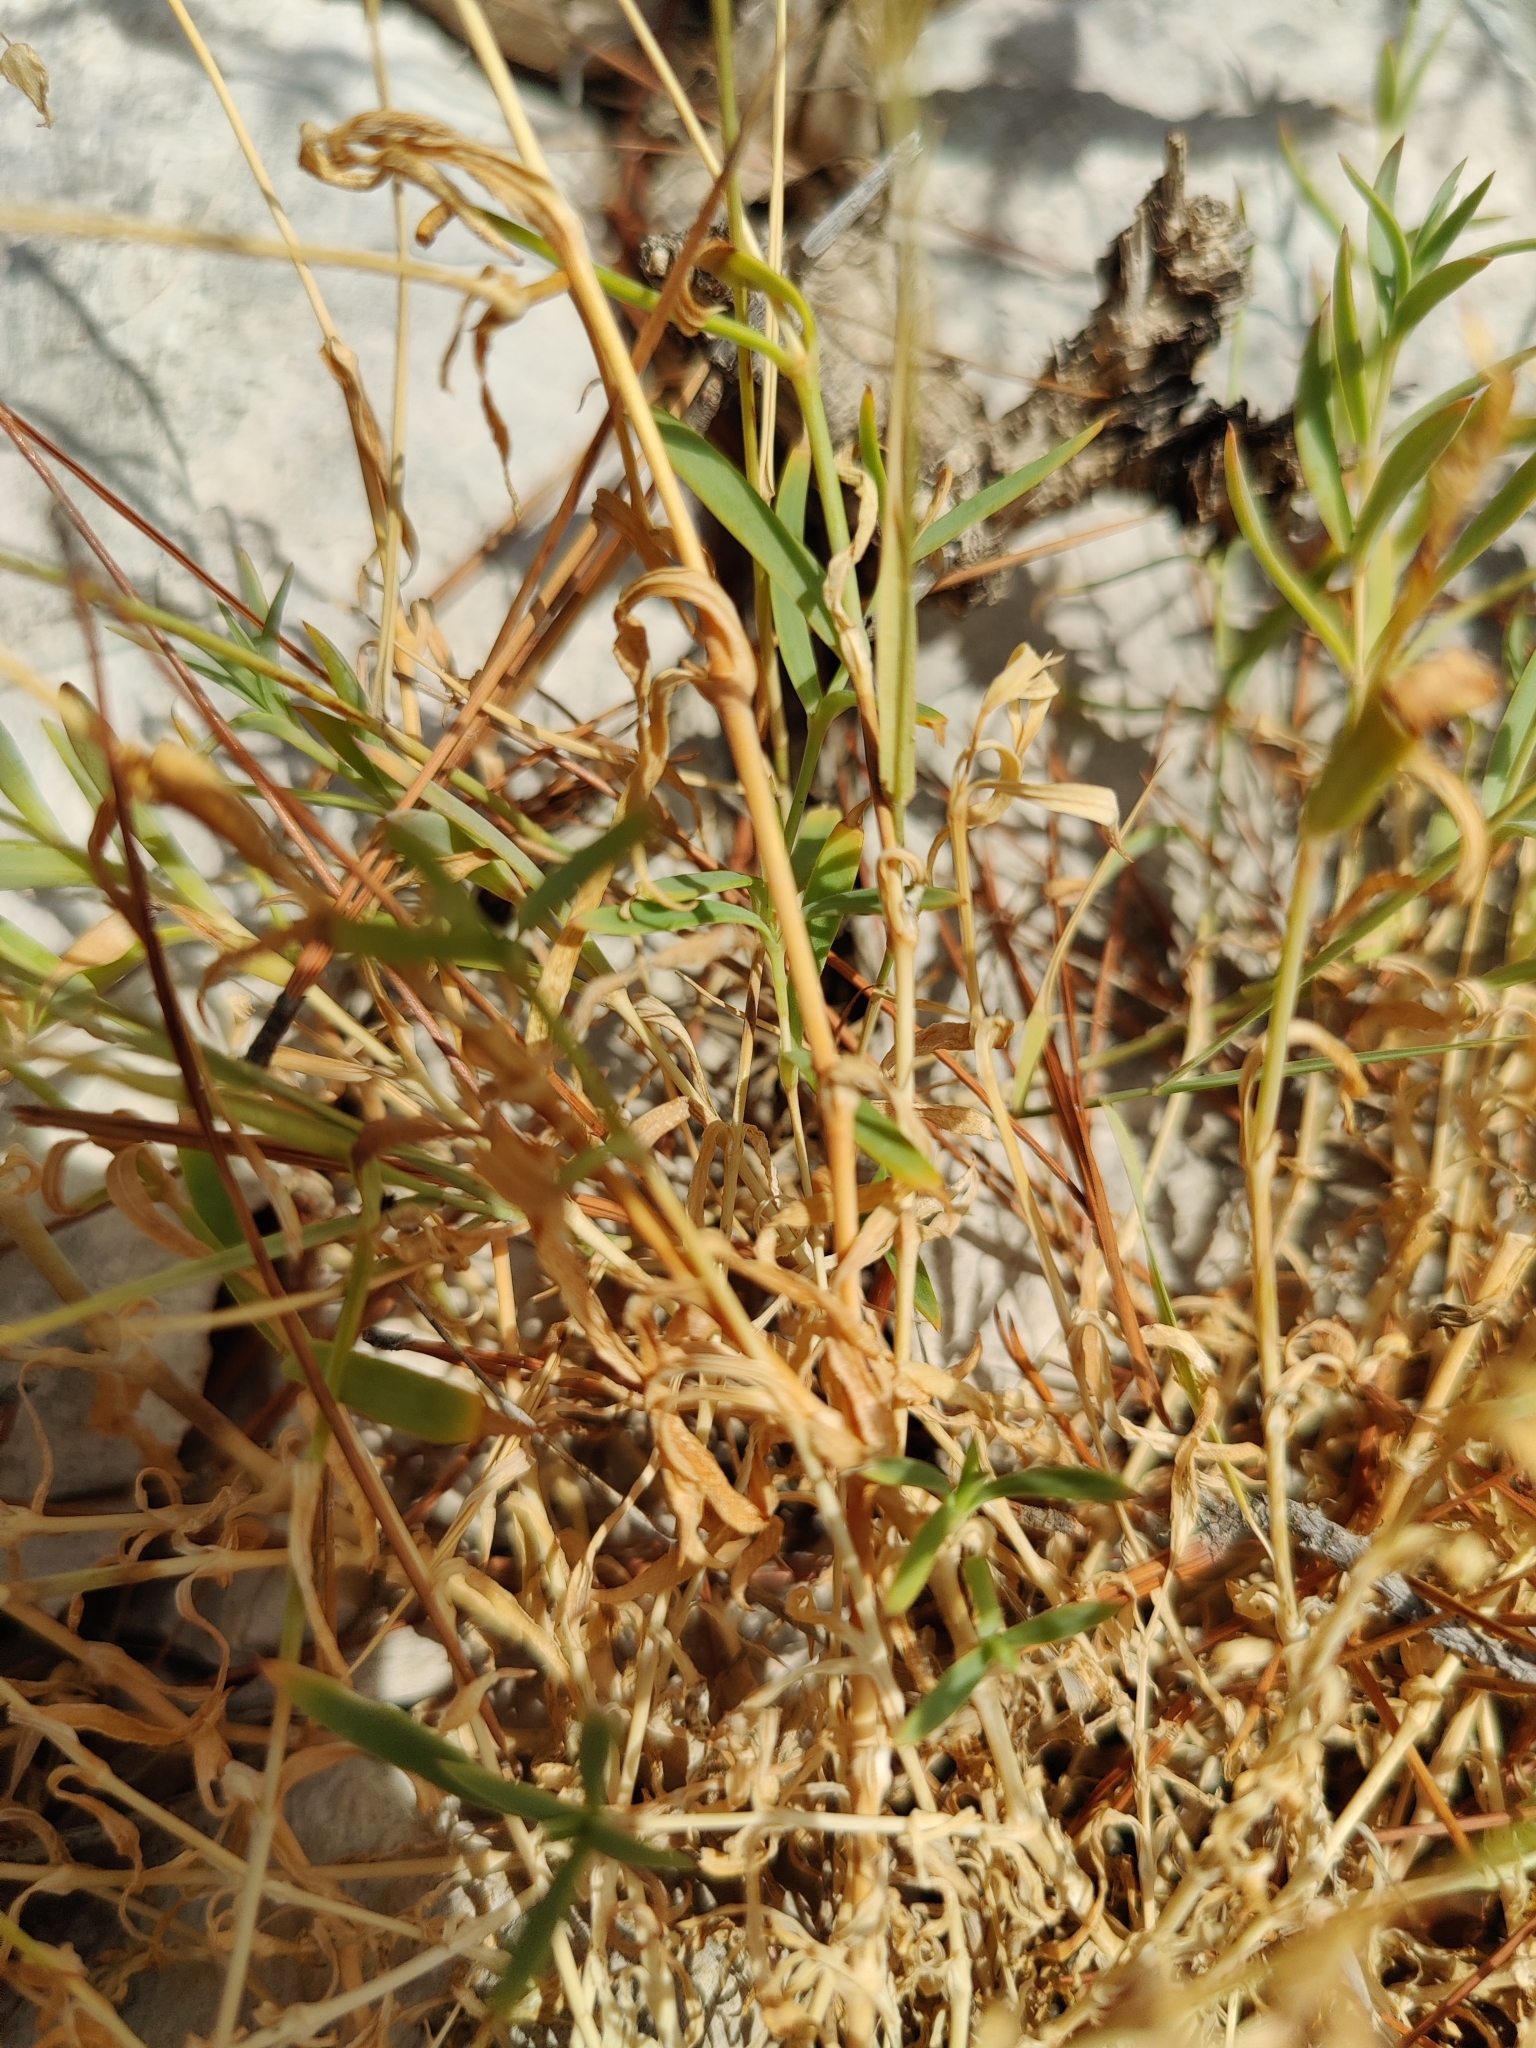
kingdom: Plantae
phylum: Tracheophyta
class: Magnoliopsida
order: Caryophyllales
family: Caryophyllaceae
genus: Silene
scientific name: Silene vulgaris
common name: Bladder campion
